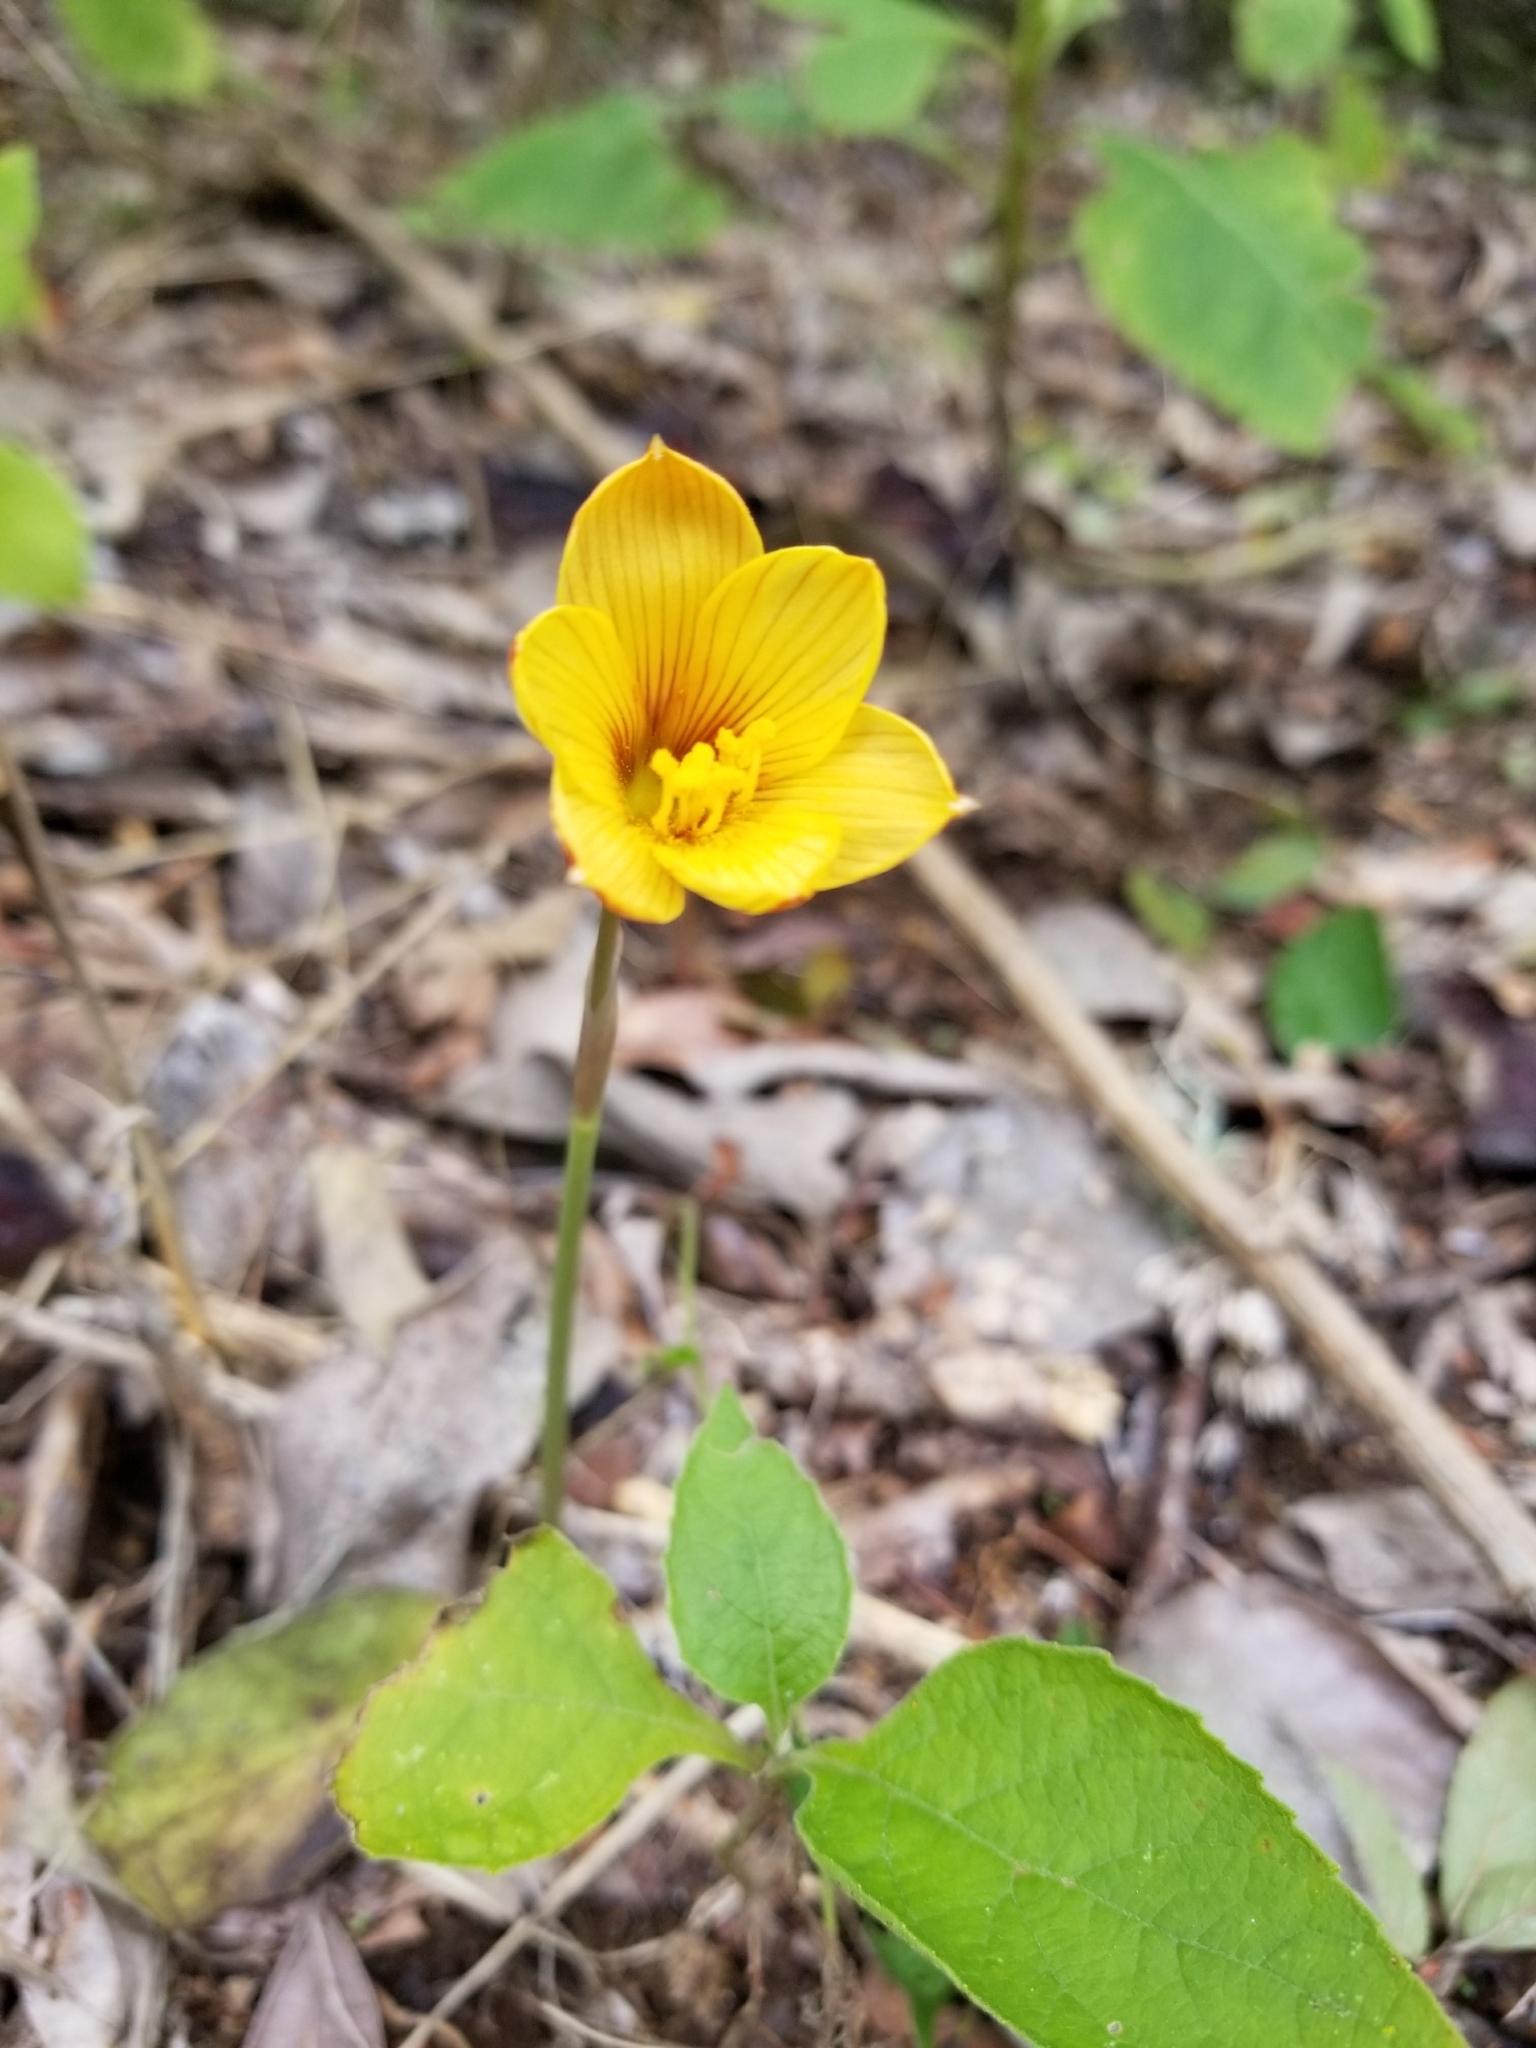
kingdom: Plantae
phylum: Tracheophyta
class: Liliopsida
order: Asparagales
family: Amaryllidaceae
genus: Zephyranthes
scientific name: Zephyranthes tubispatha
